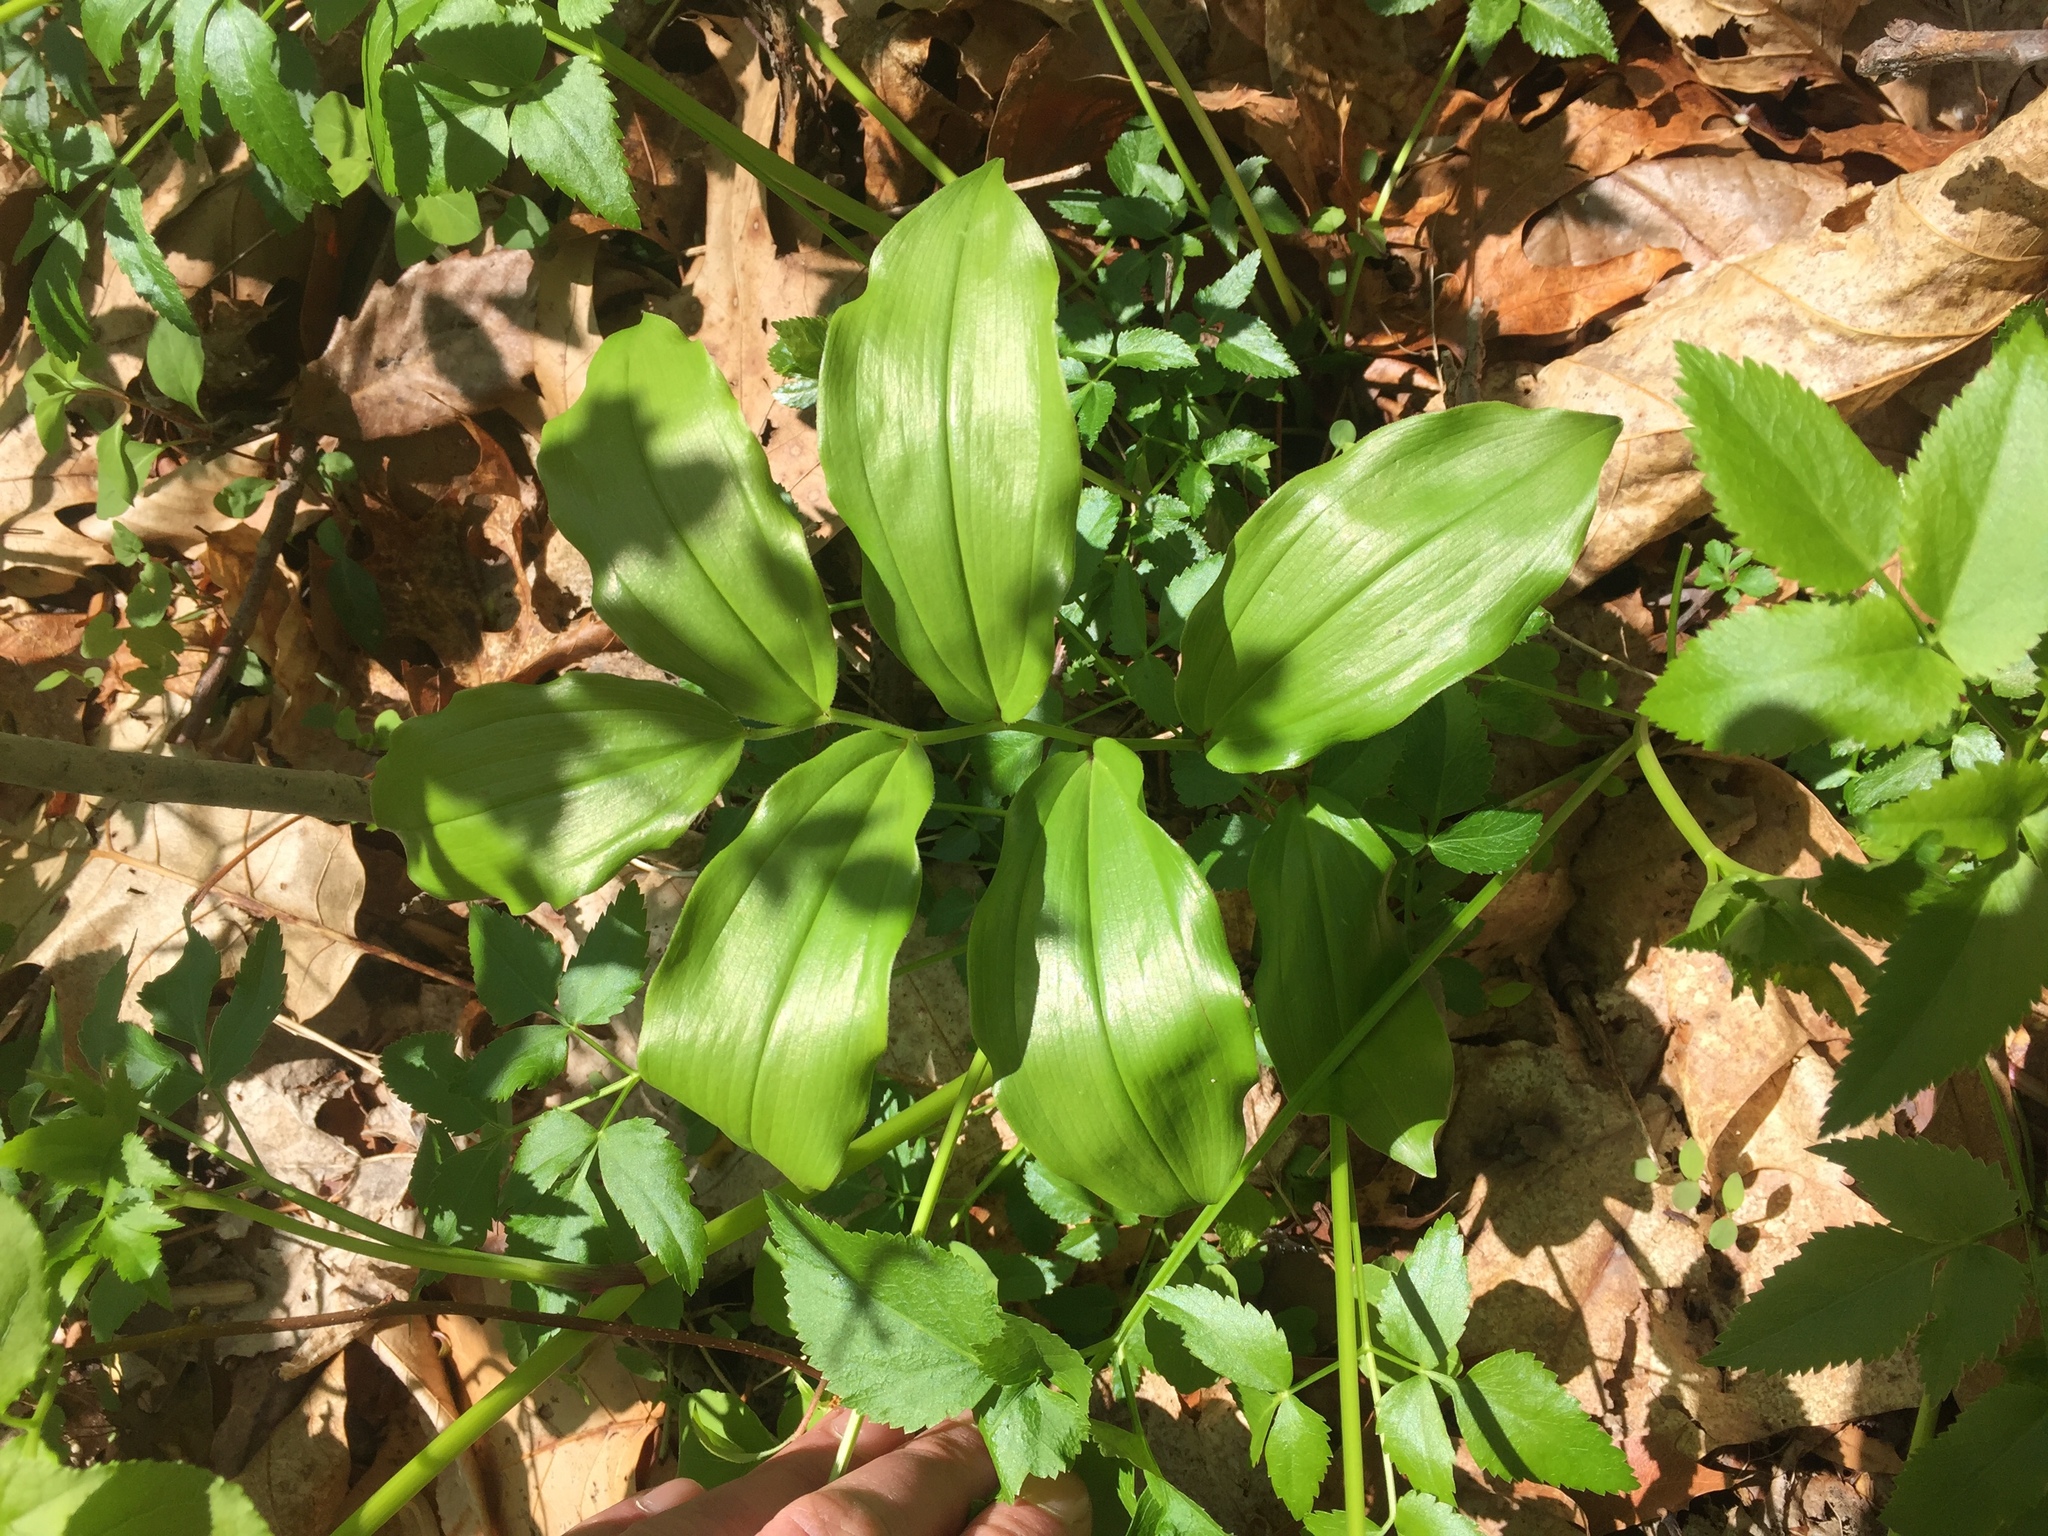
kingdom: Plantae
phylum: Tracheophyta
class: Liliopsida
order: Asparagales
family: Asparagaceae
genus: Maianthemum
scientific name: Maianthemum racemosum
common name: False spikenard
